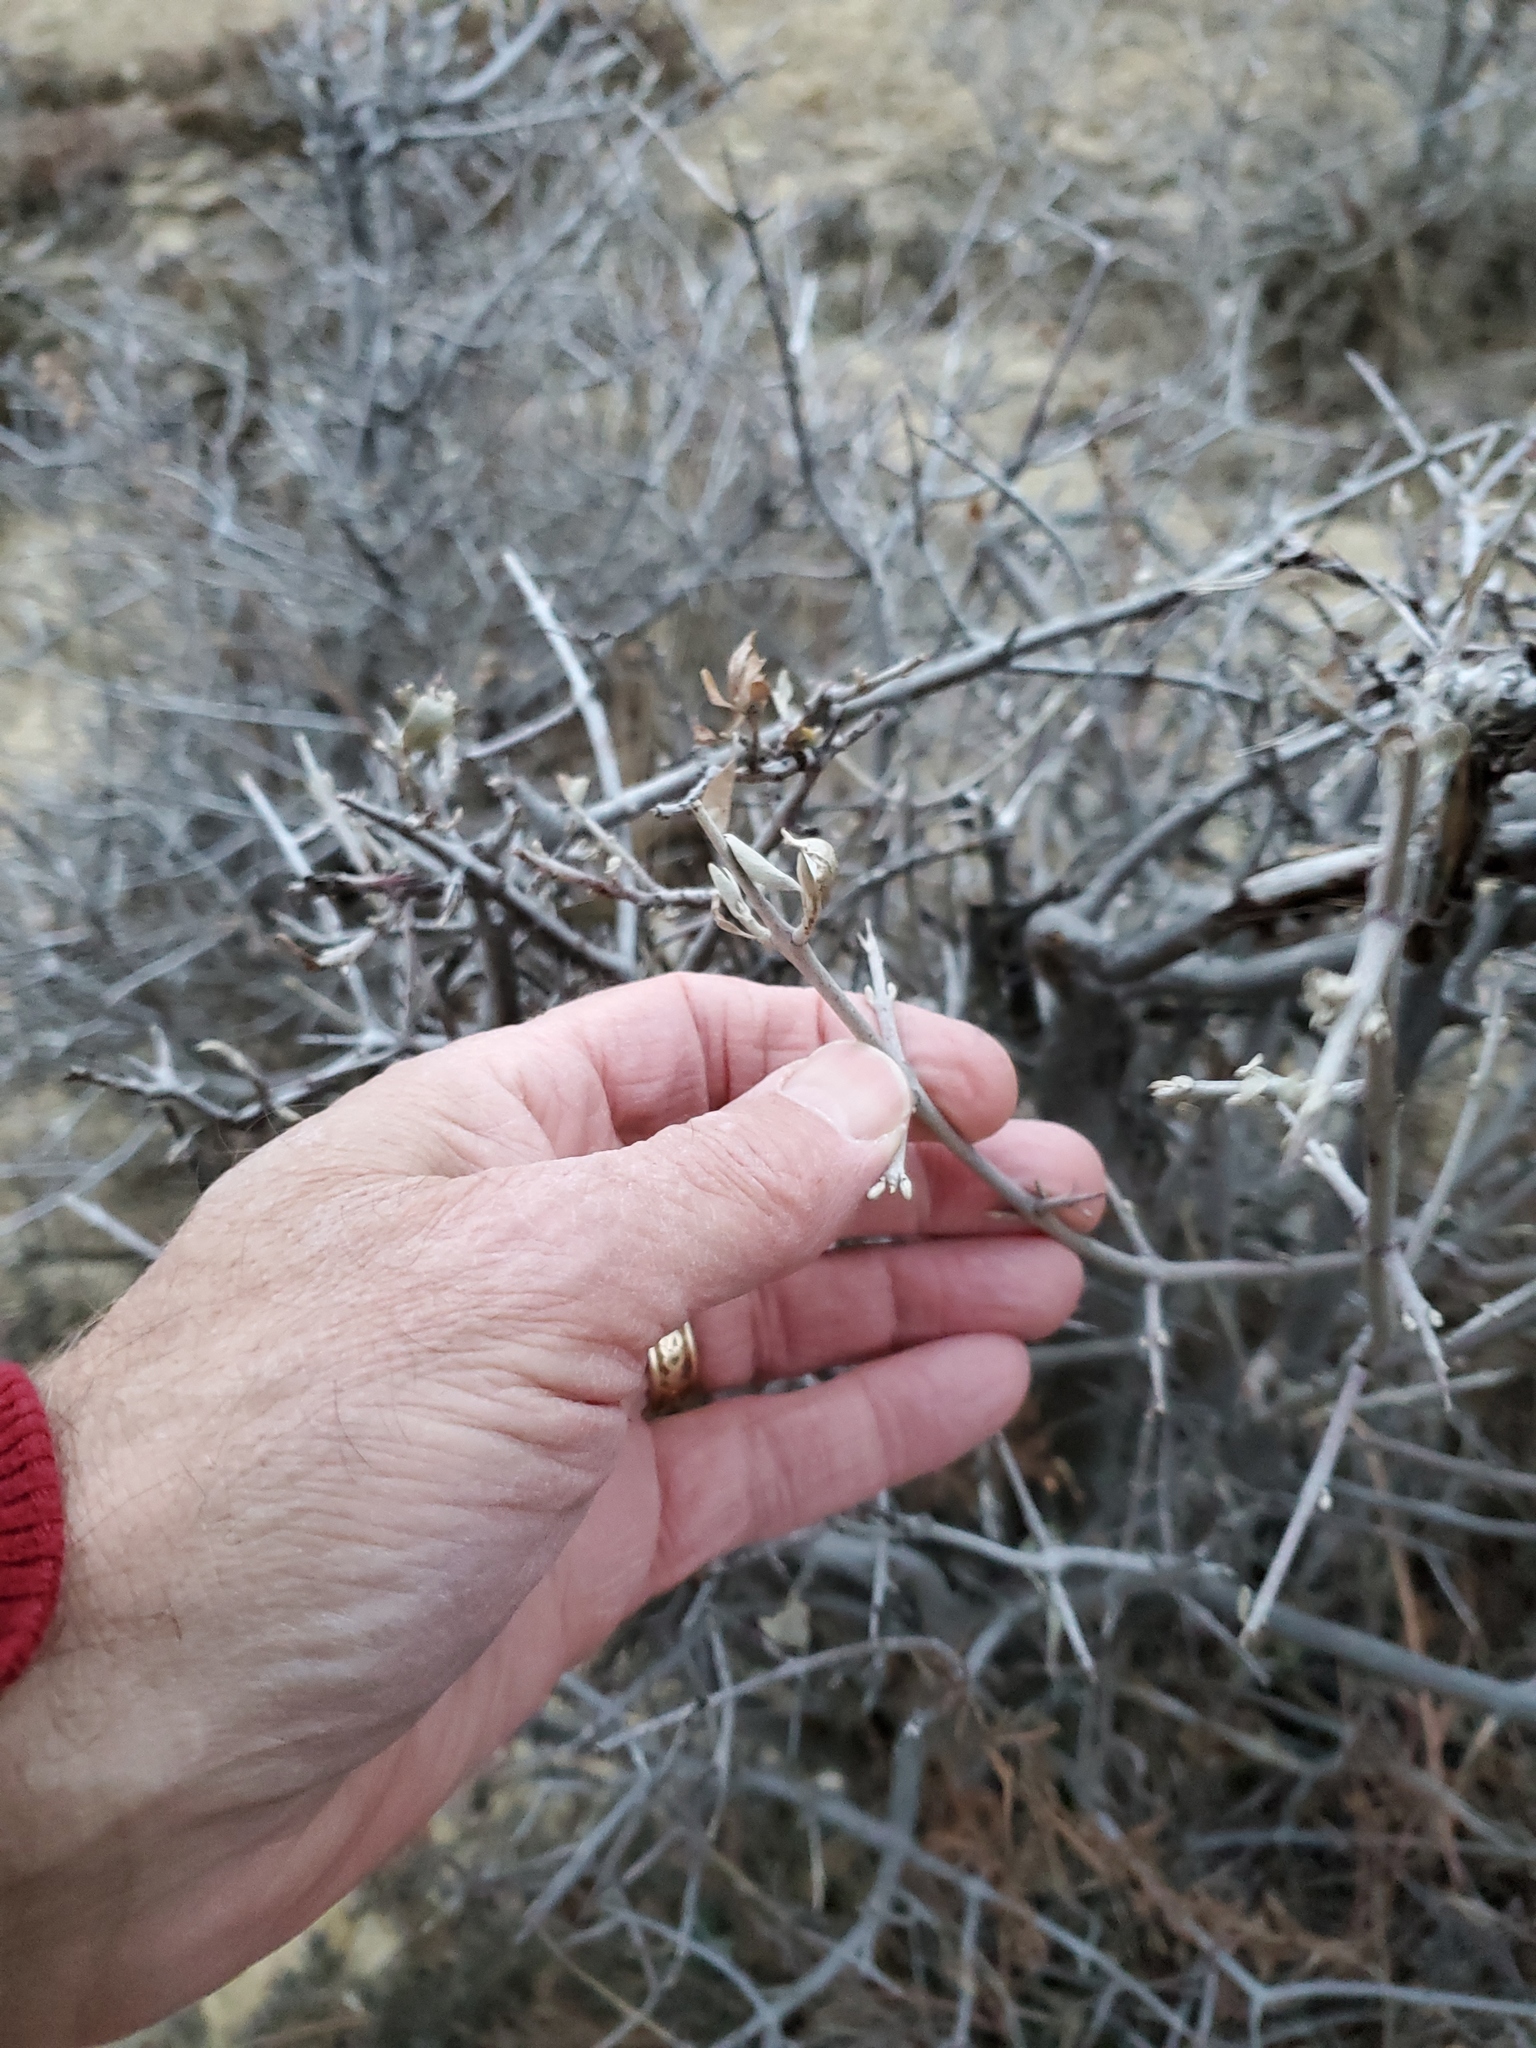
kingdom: Plantae
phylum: Tracheophyta
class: Magnoliopsida
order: Rosales
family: Elaeagnaceae
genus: Shepherdia
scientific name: Shepherdia argentea
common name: Silver buffaloberry
